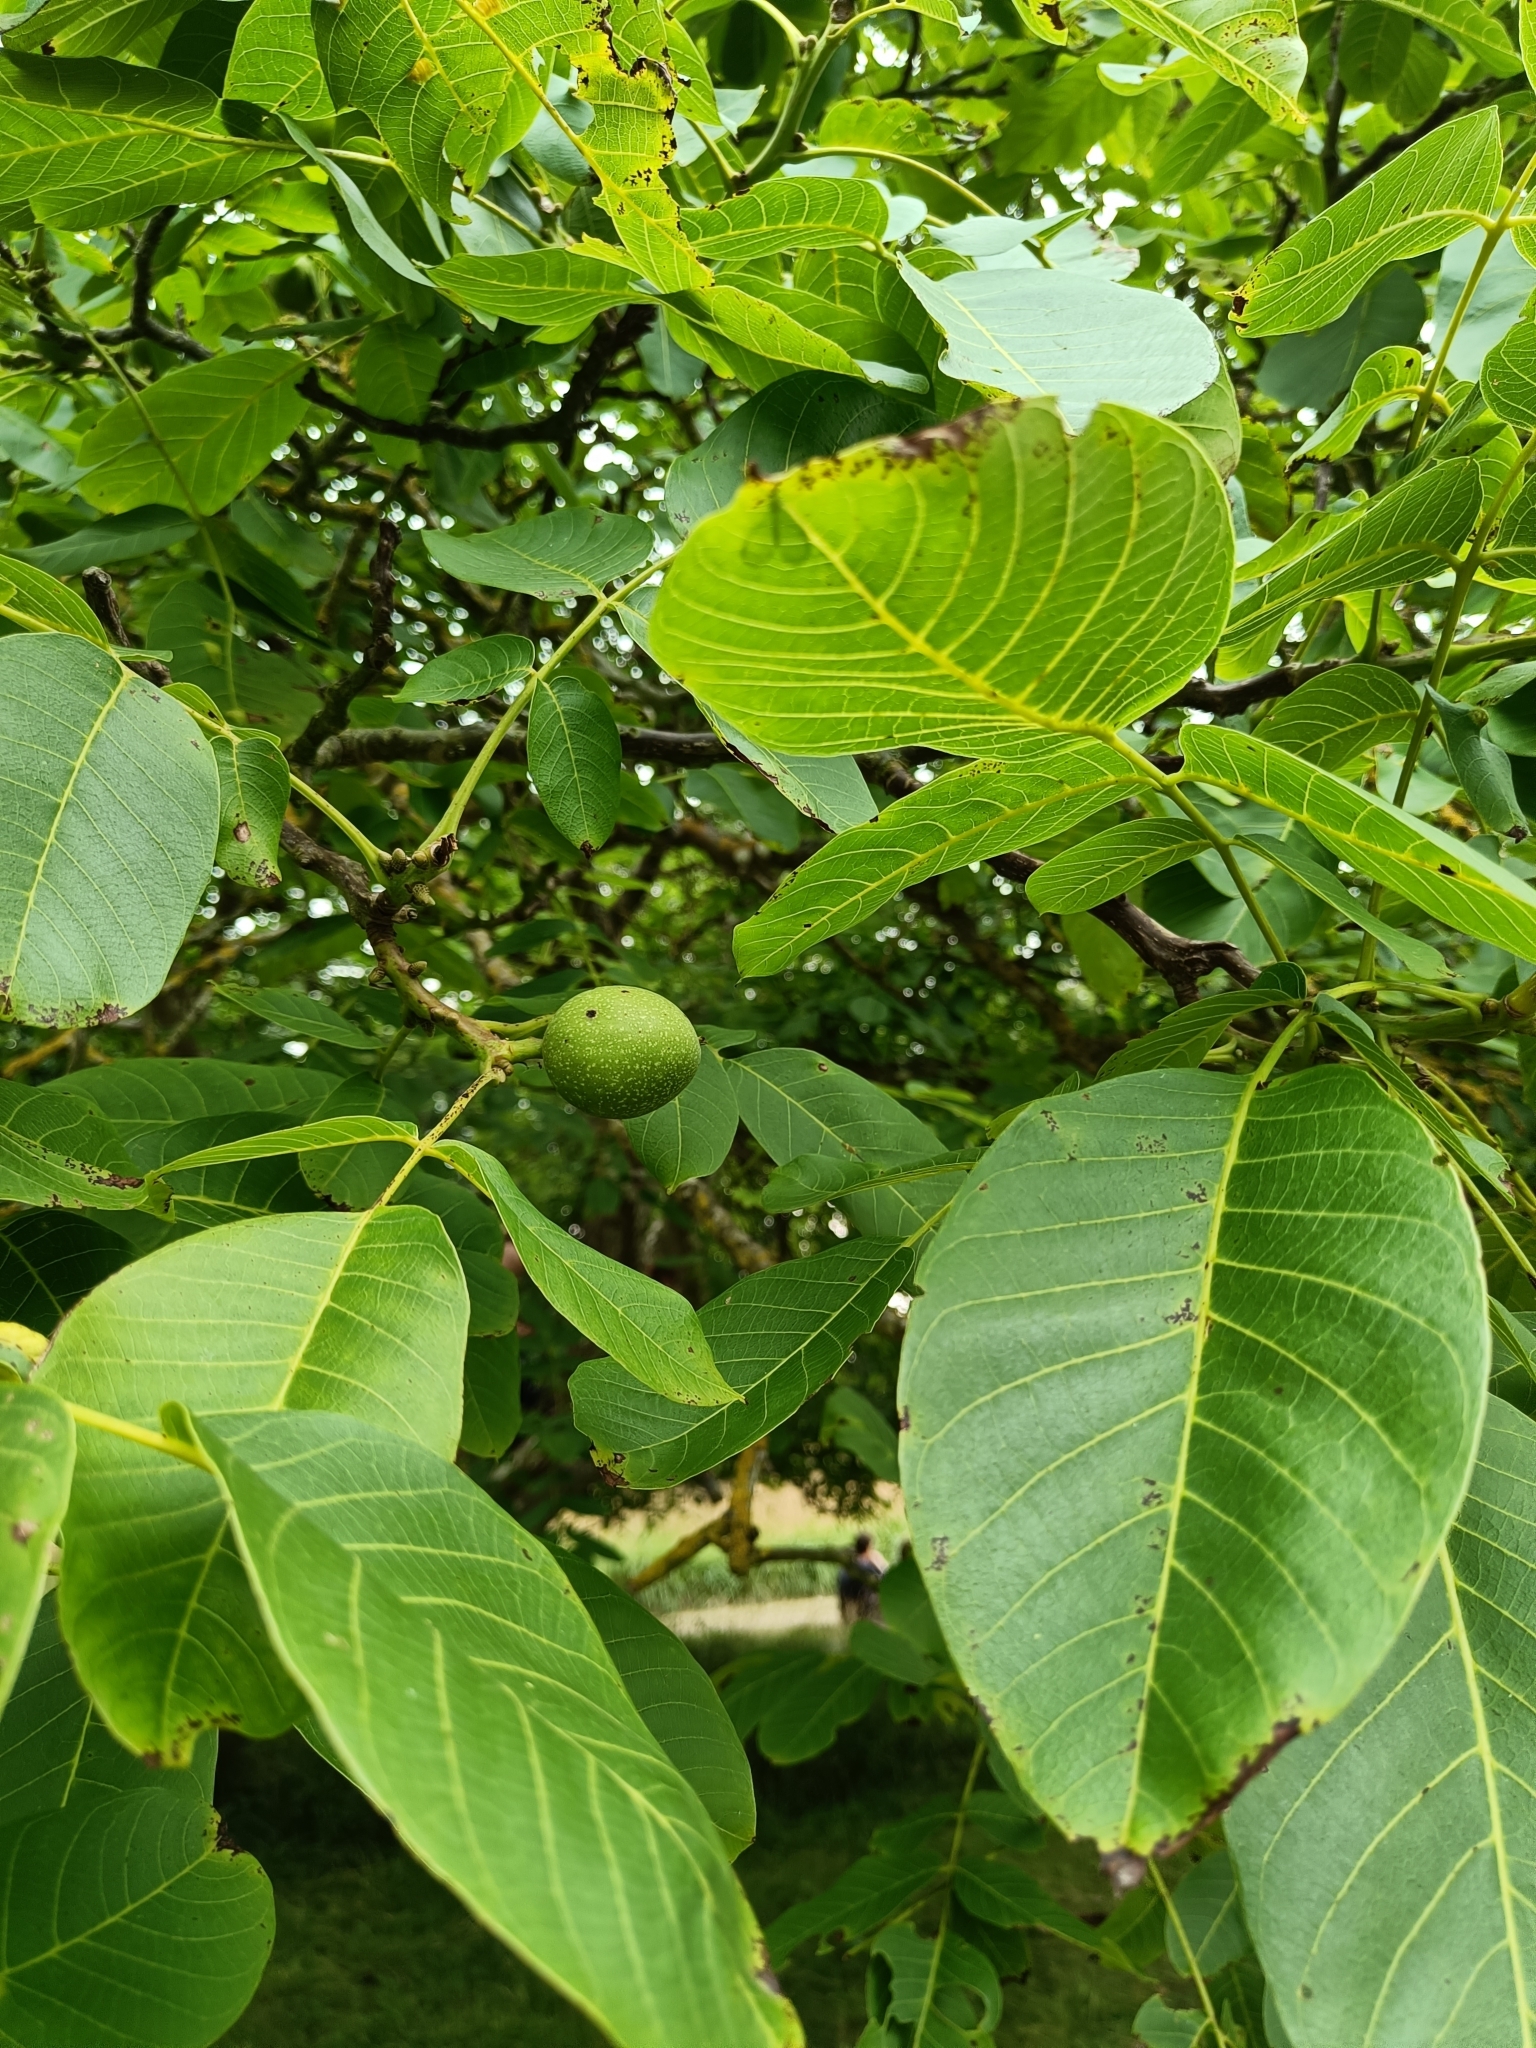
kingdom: Plantae
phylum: Tracheophyta
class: Magnoliopsida
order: Fagales
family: Juglandaceae
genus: Juglans
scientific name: Juglans regia
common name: Walnut
